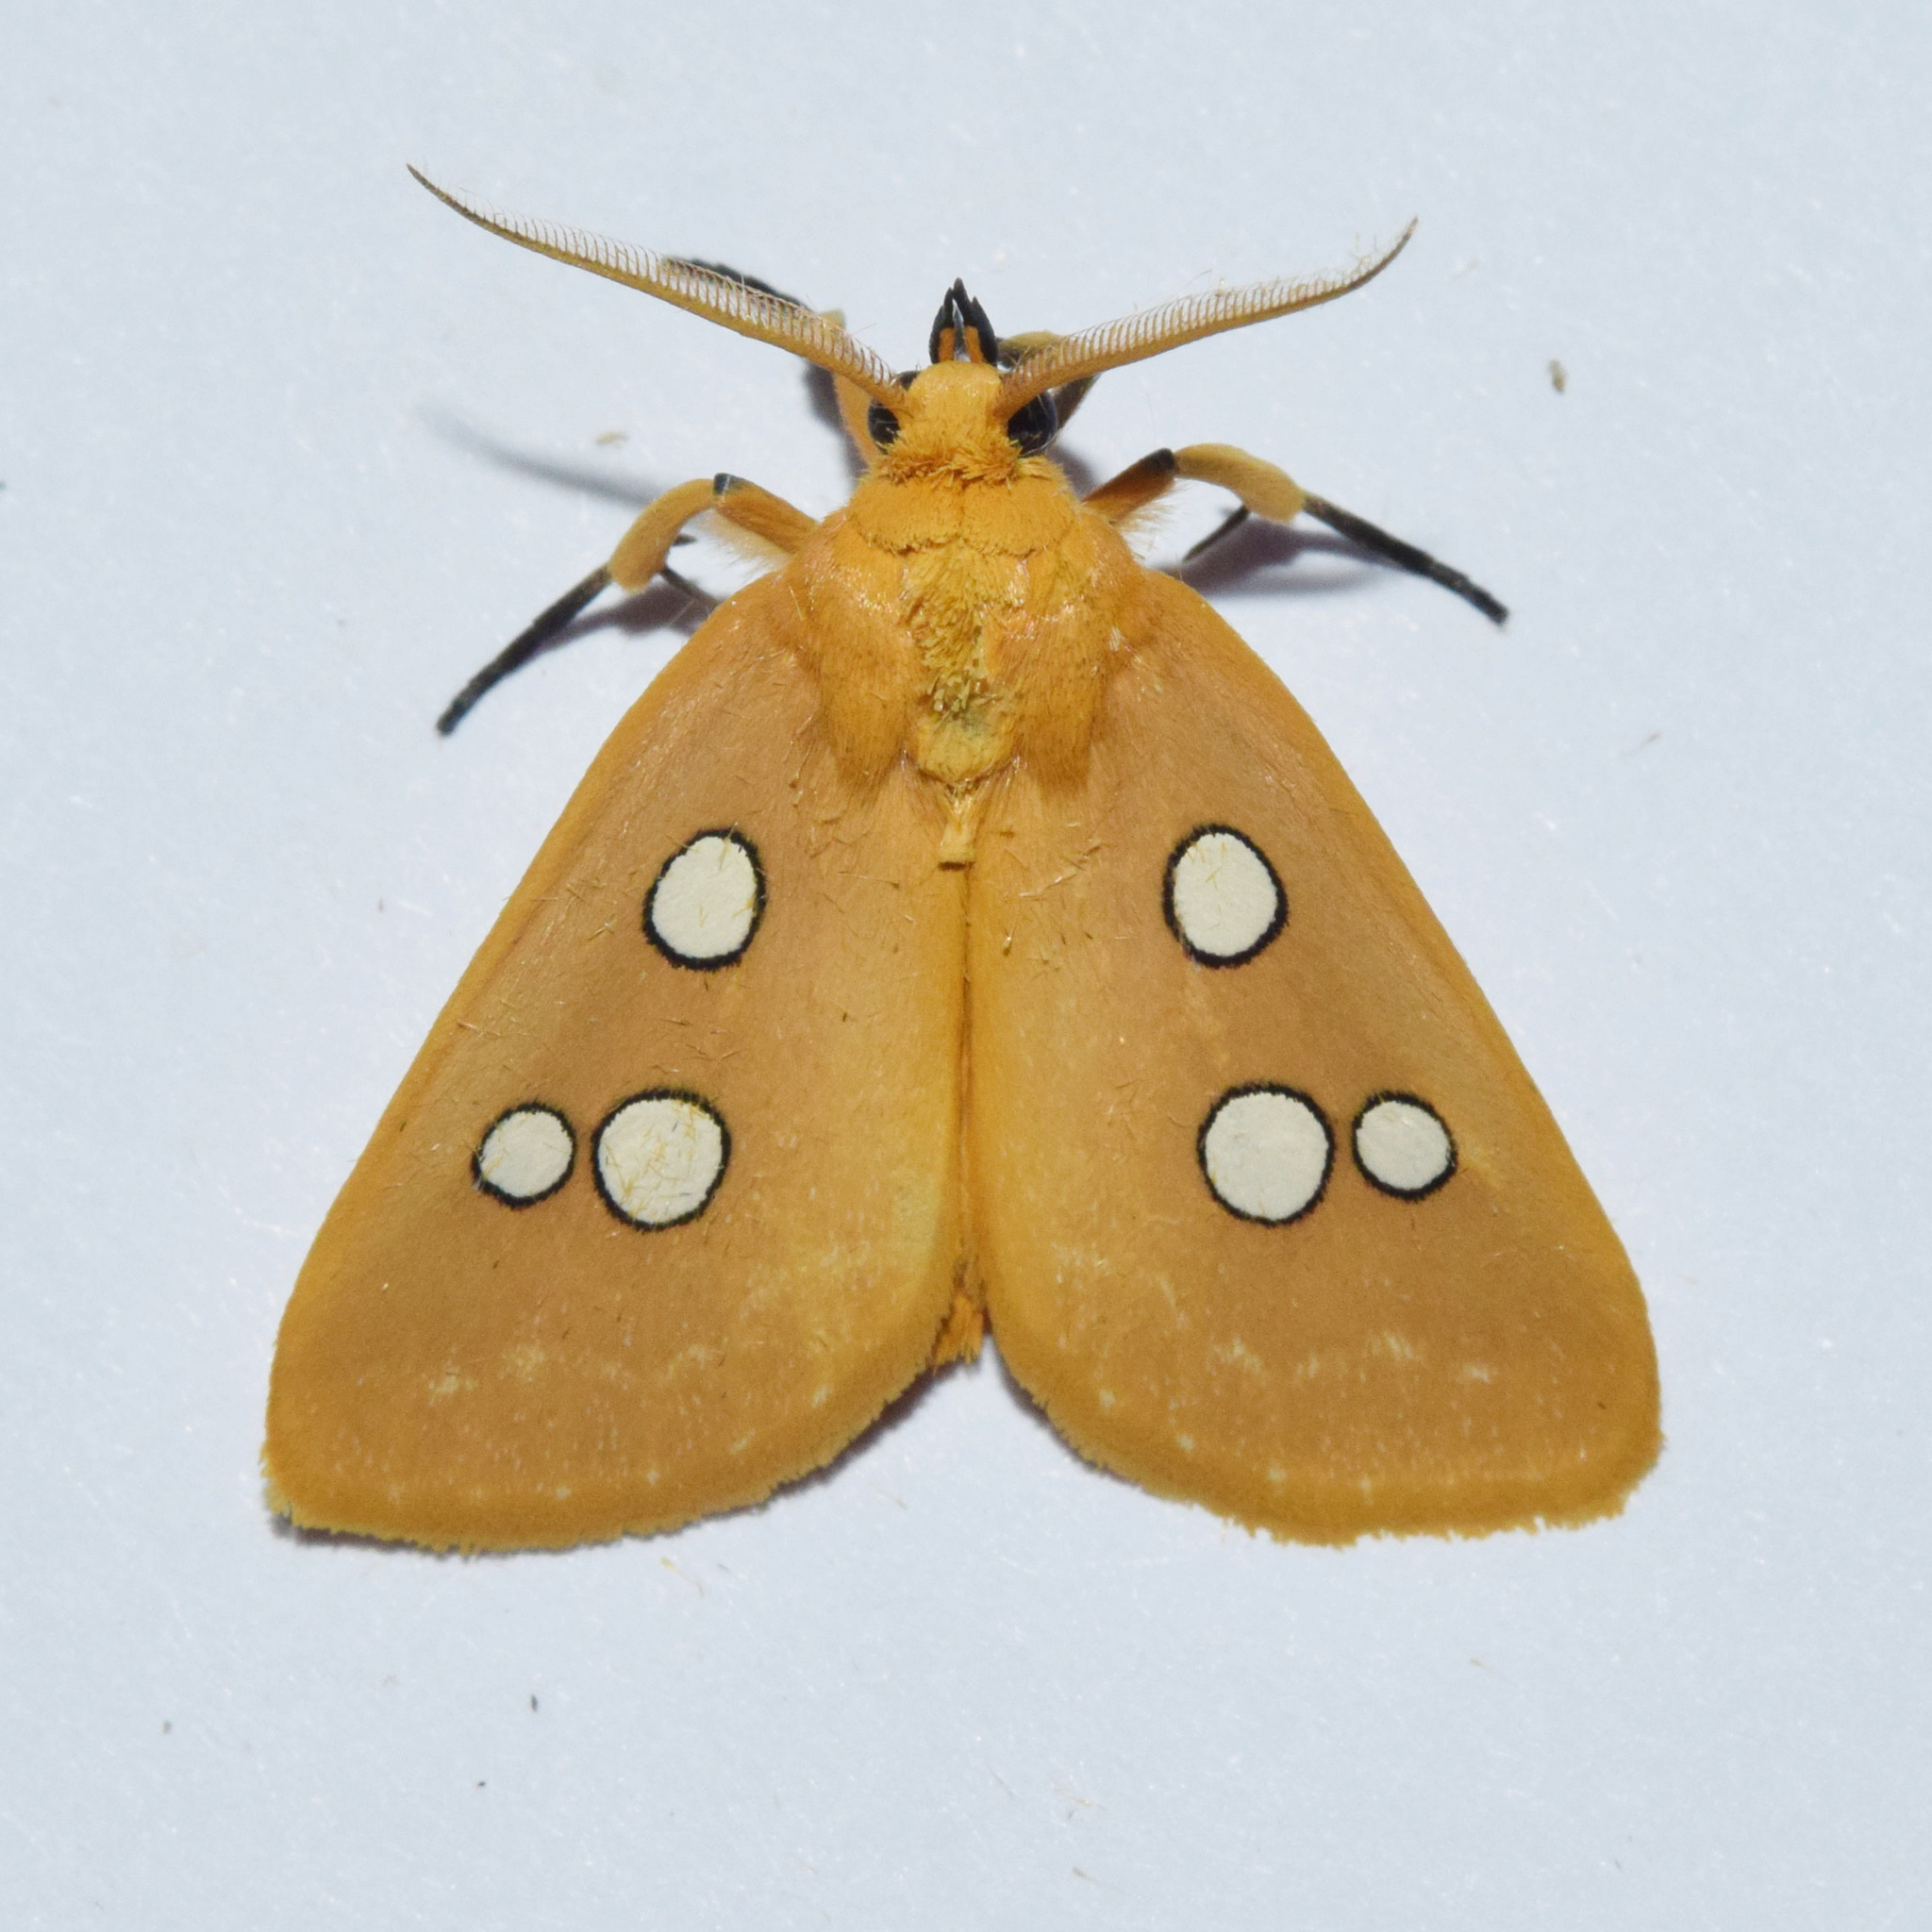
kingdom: Animalia
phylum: Arthropoda
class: Insecta
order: Lepidoptera
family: Erebidae
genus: Rhanidophora
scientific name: Rhanidophora cinctigutta
